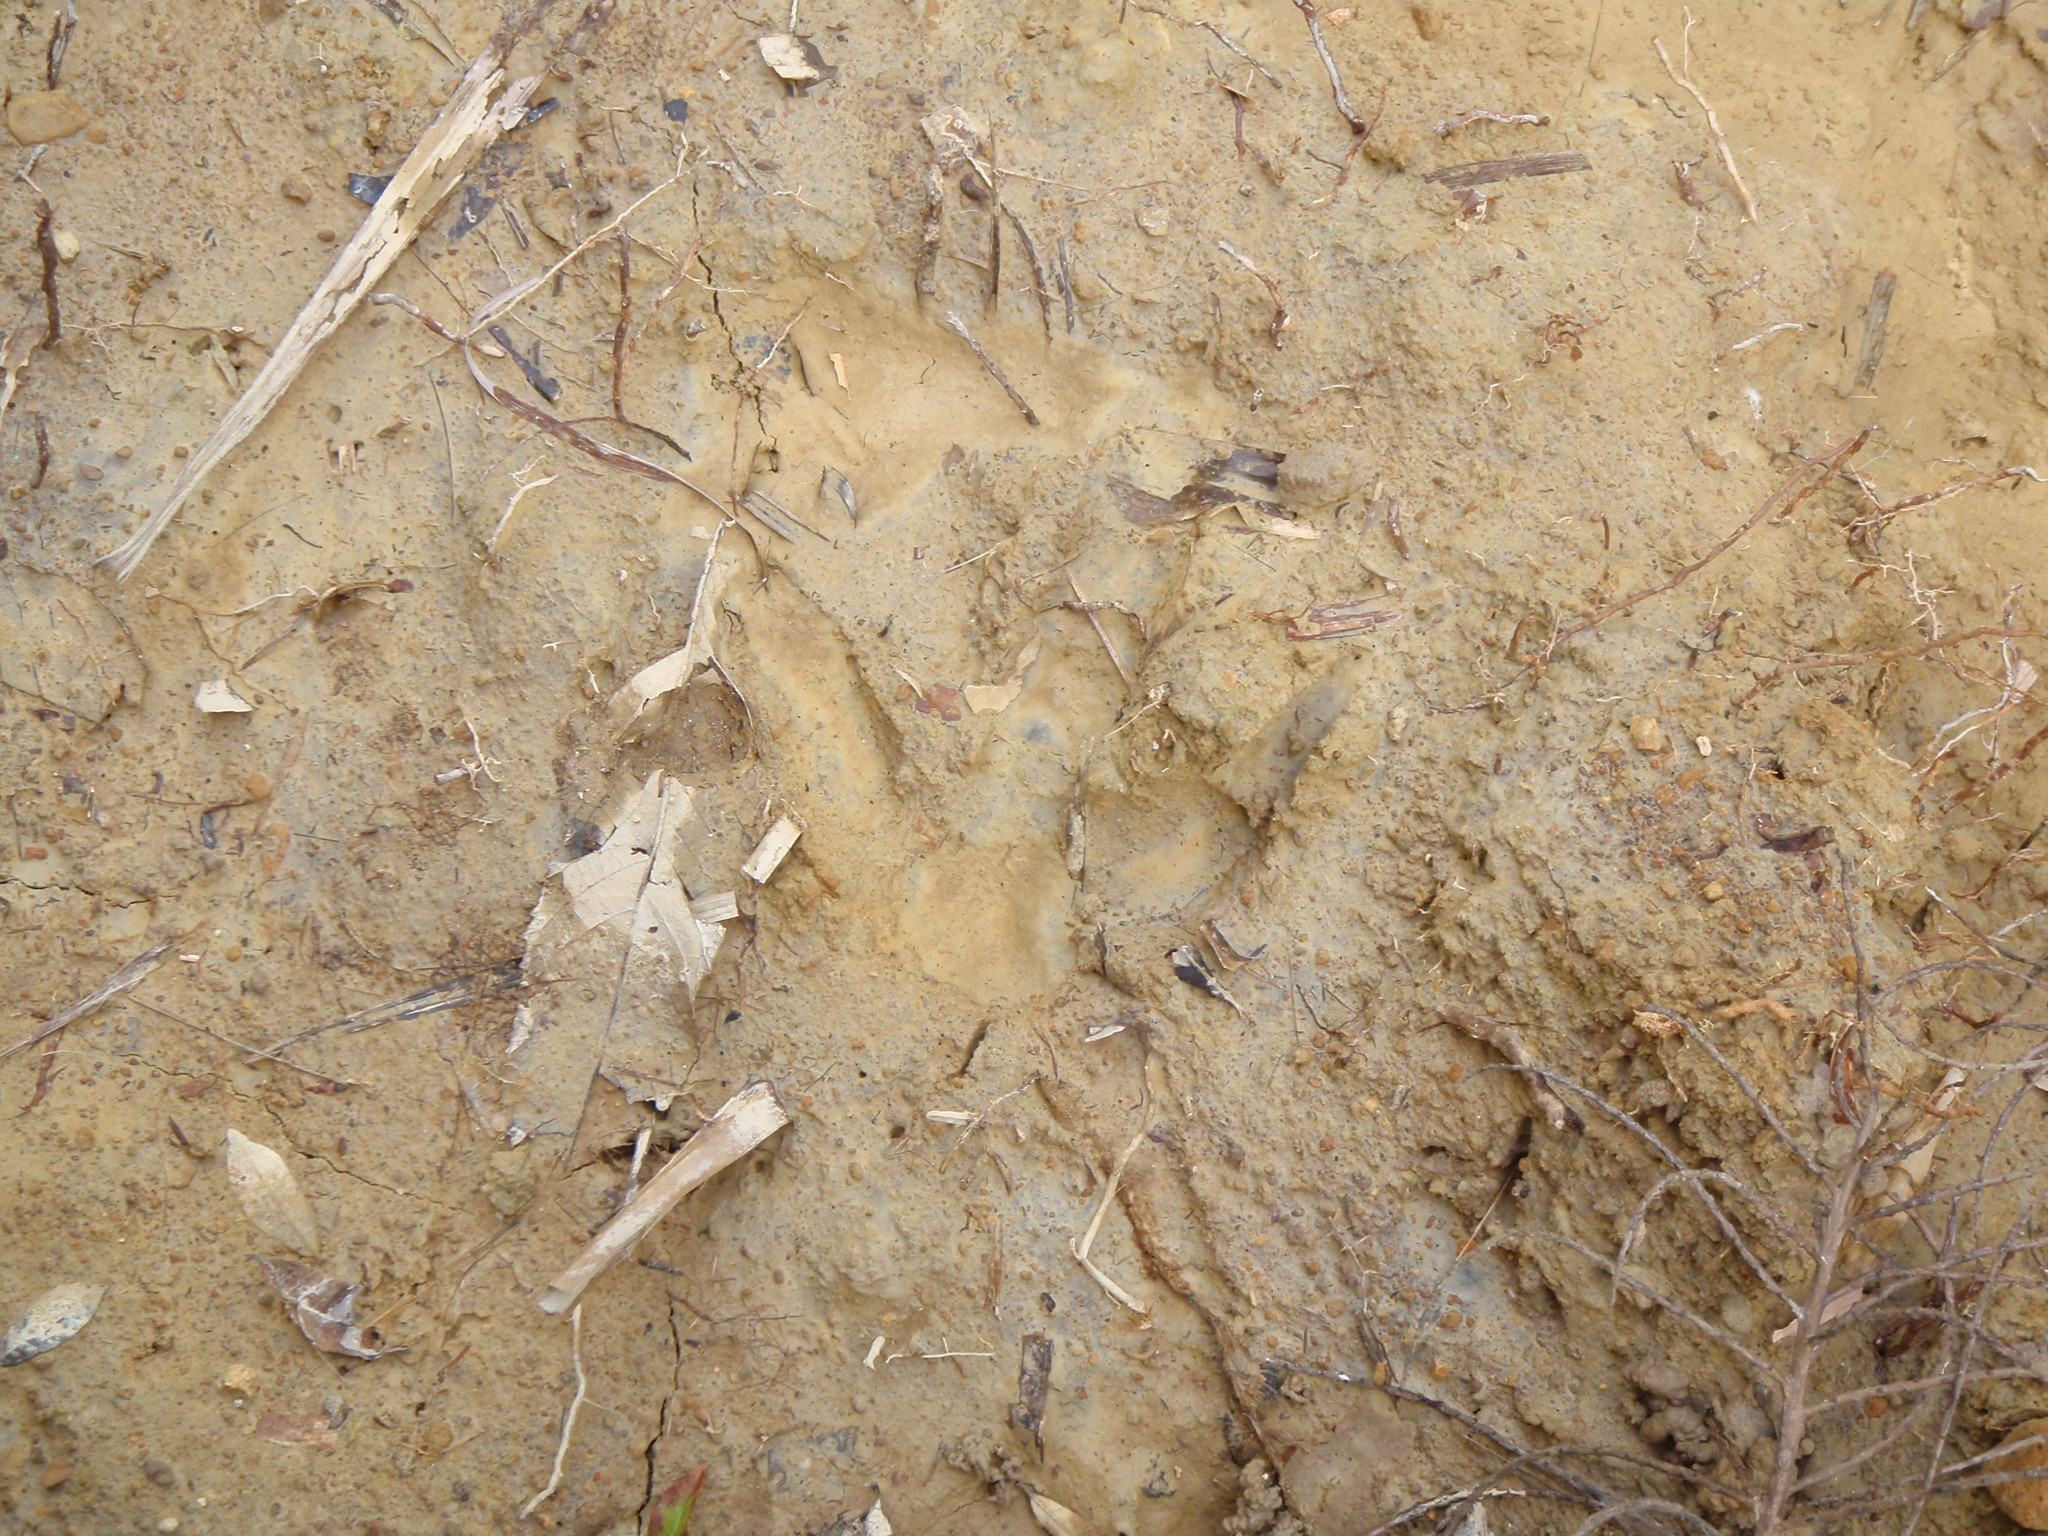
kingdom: Animalia
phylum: Chordata
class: Aves
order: Casuariiformes
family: Casuariidae
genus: Casuarius
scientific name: Casuarius casuarius
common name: Southern cassowary
